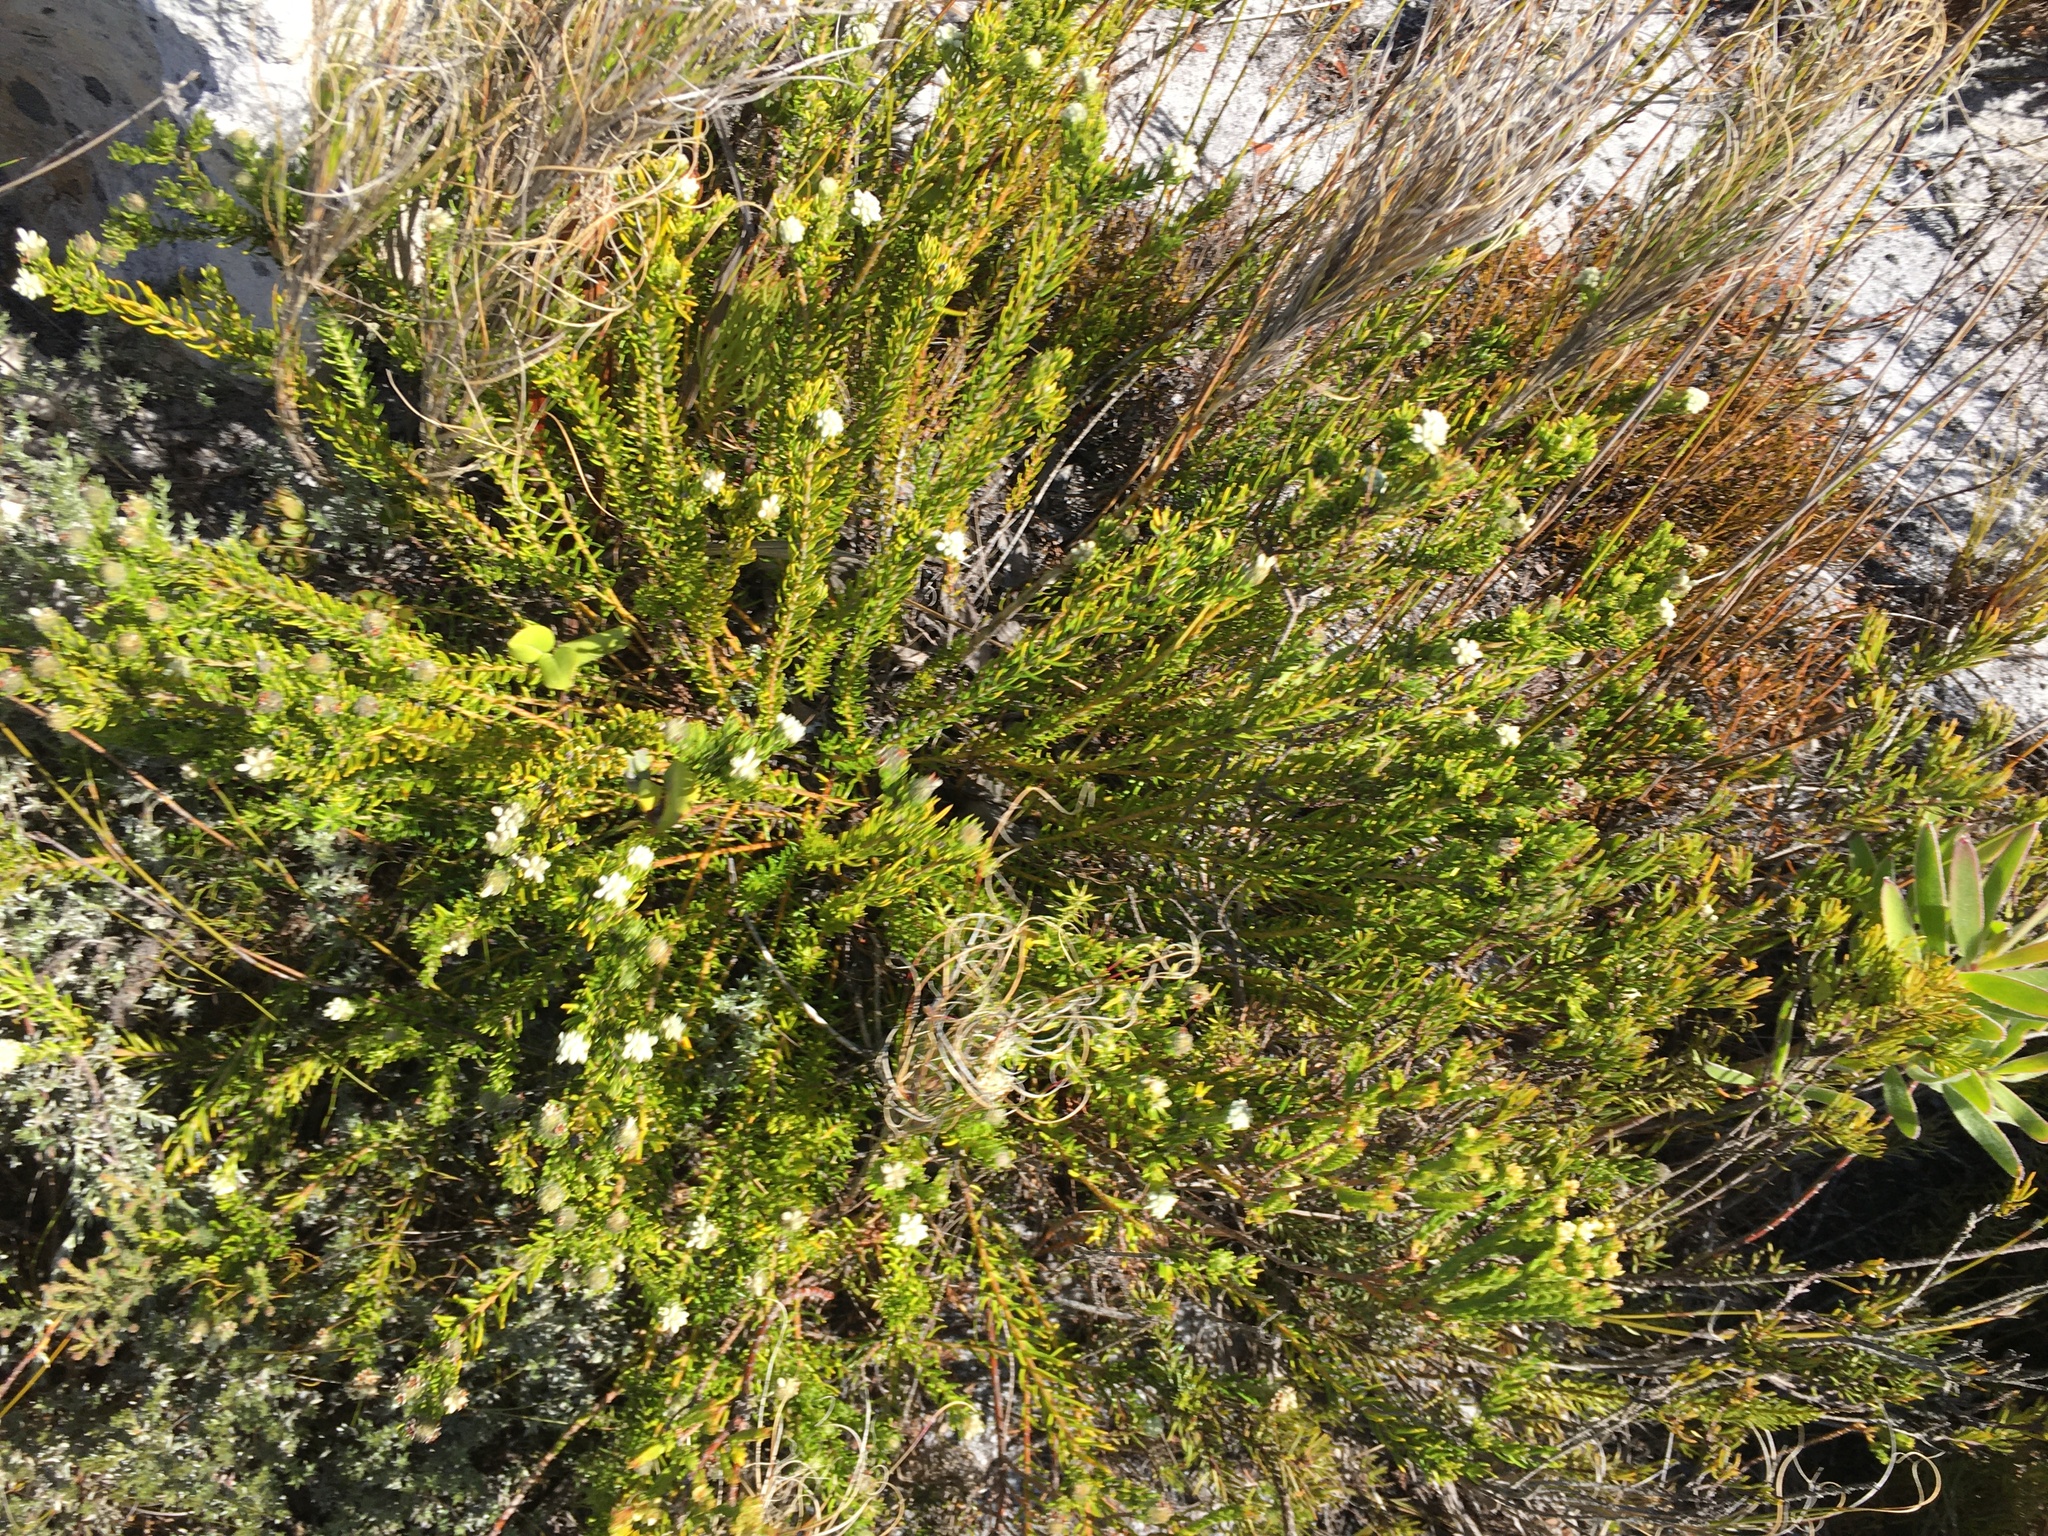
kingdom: Plantae
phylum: Tracheophyta
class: Magnoliopsida
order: Rosales
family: Rhamnaceae
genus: Phylica
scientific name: Phylica imberbis
